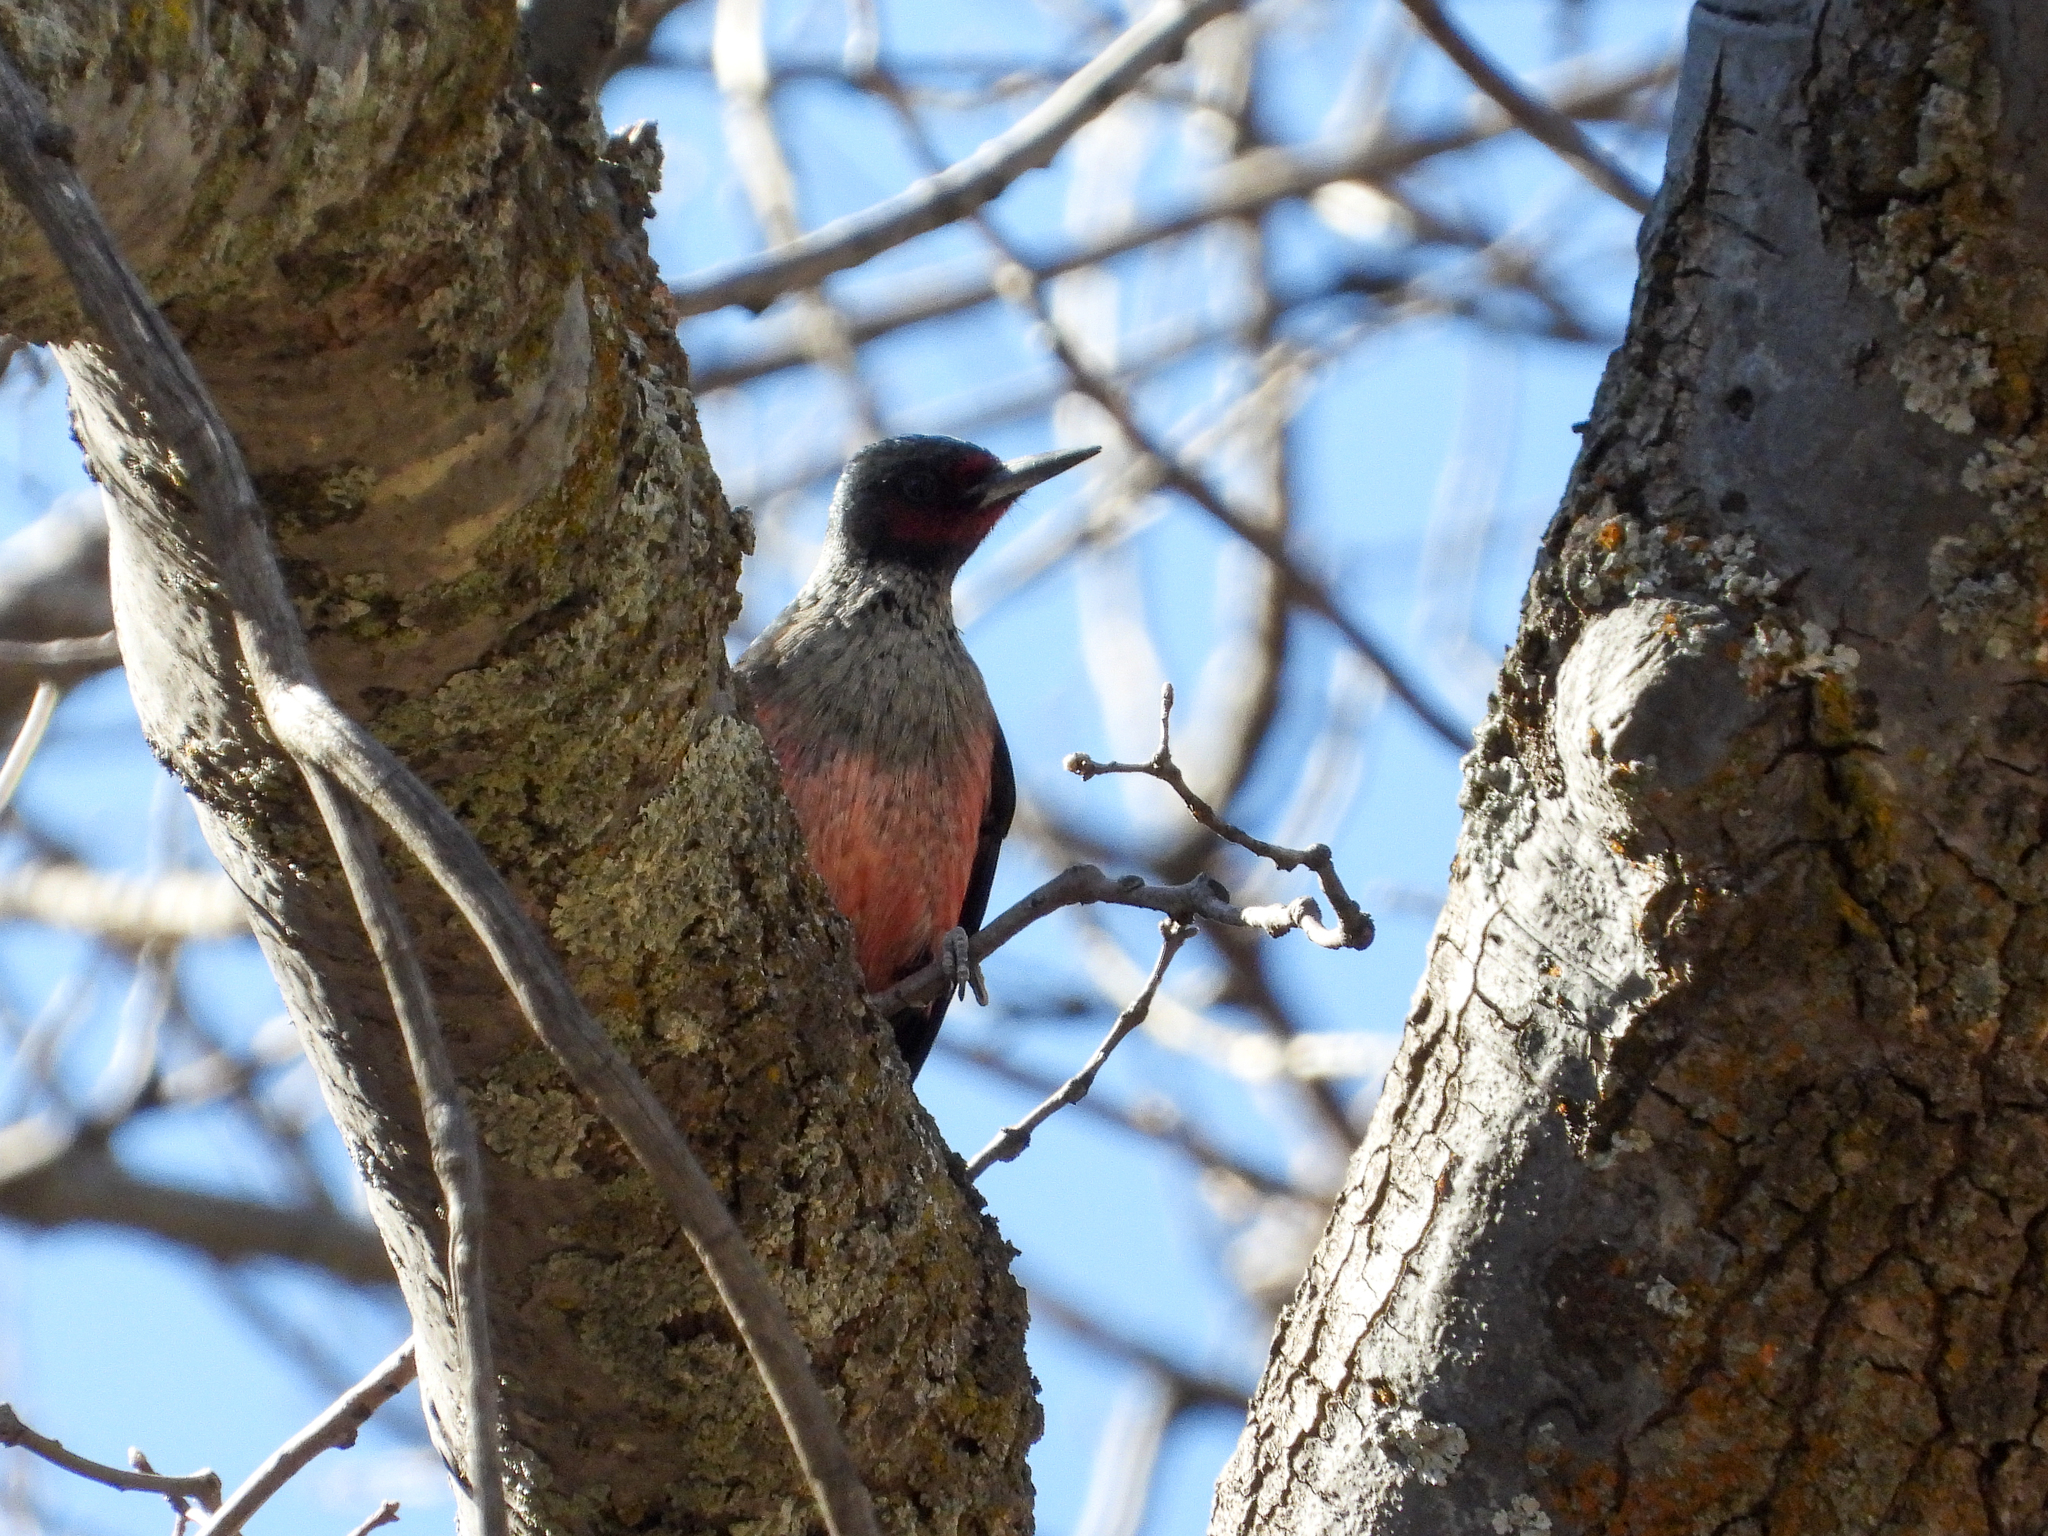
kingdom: Animalia
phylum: Chordata
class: Aves
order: Piciformes
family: Picidae
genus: Melanerpes
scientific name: Melanerpes lewis
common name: Lewis's woodpecker
